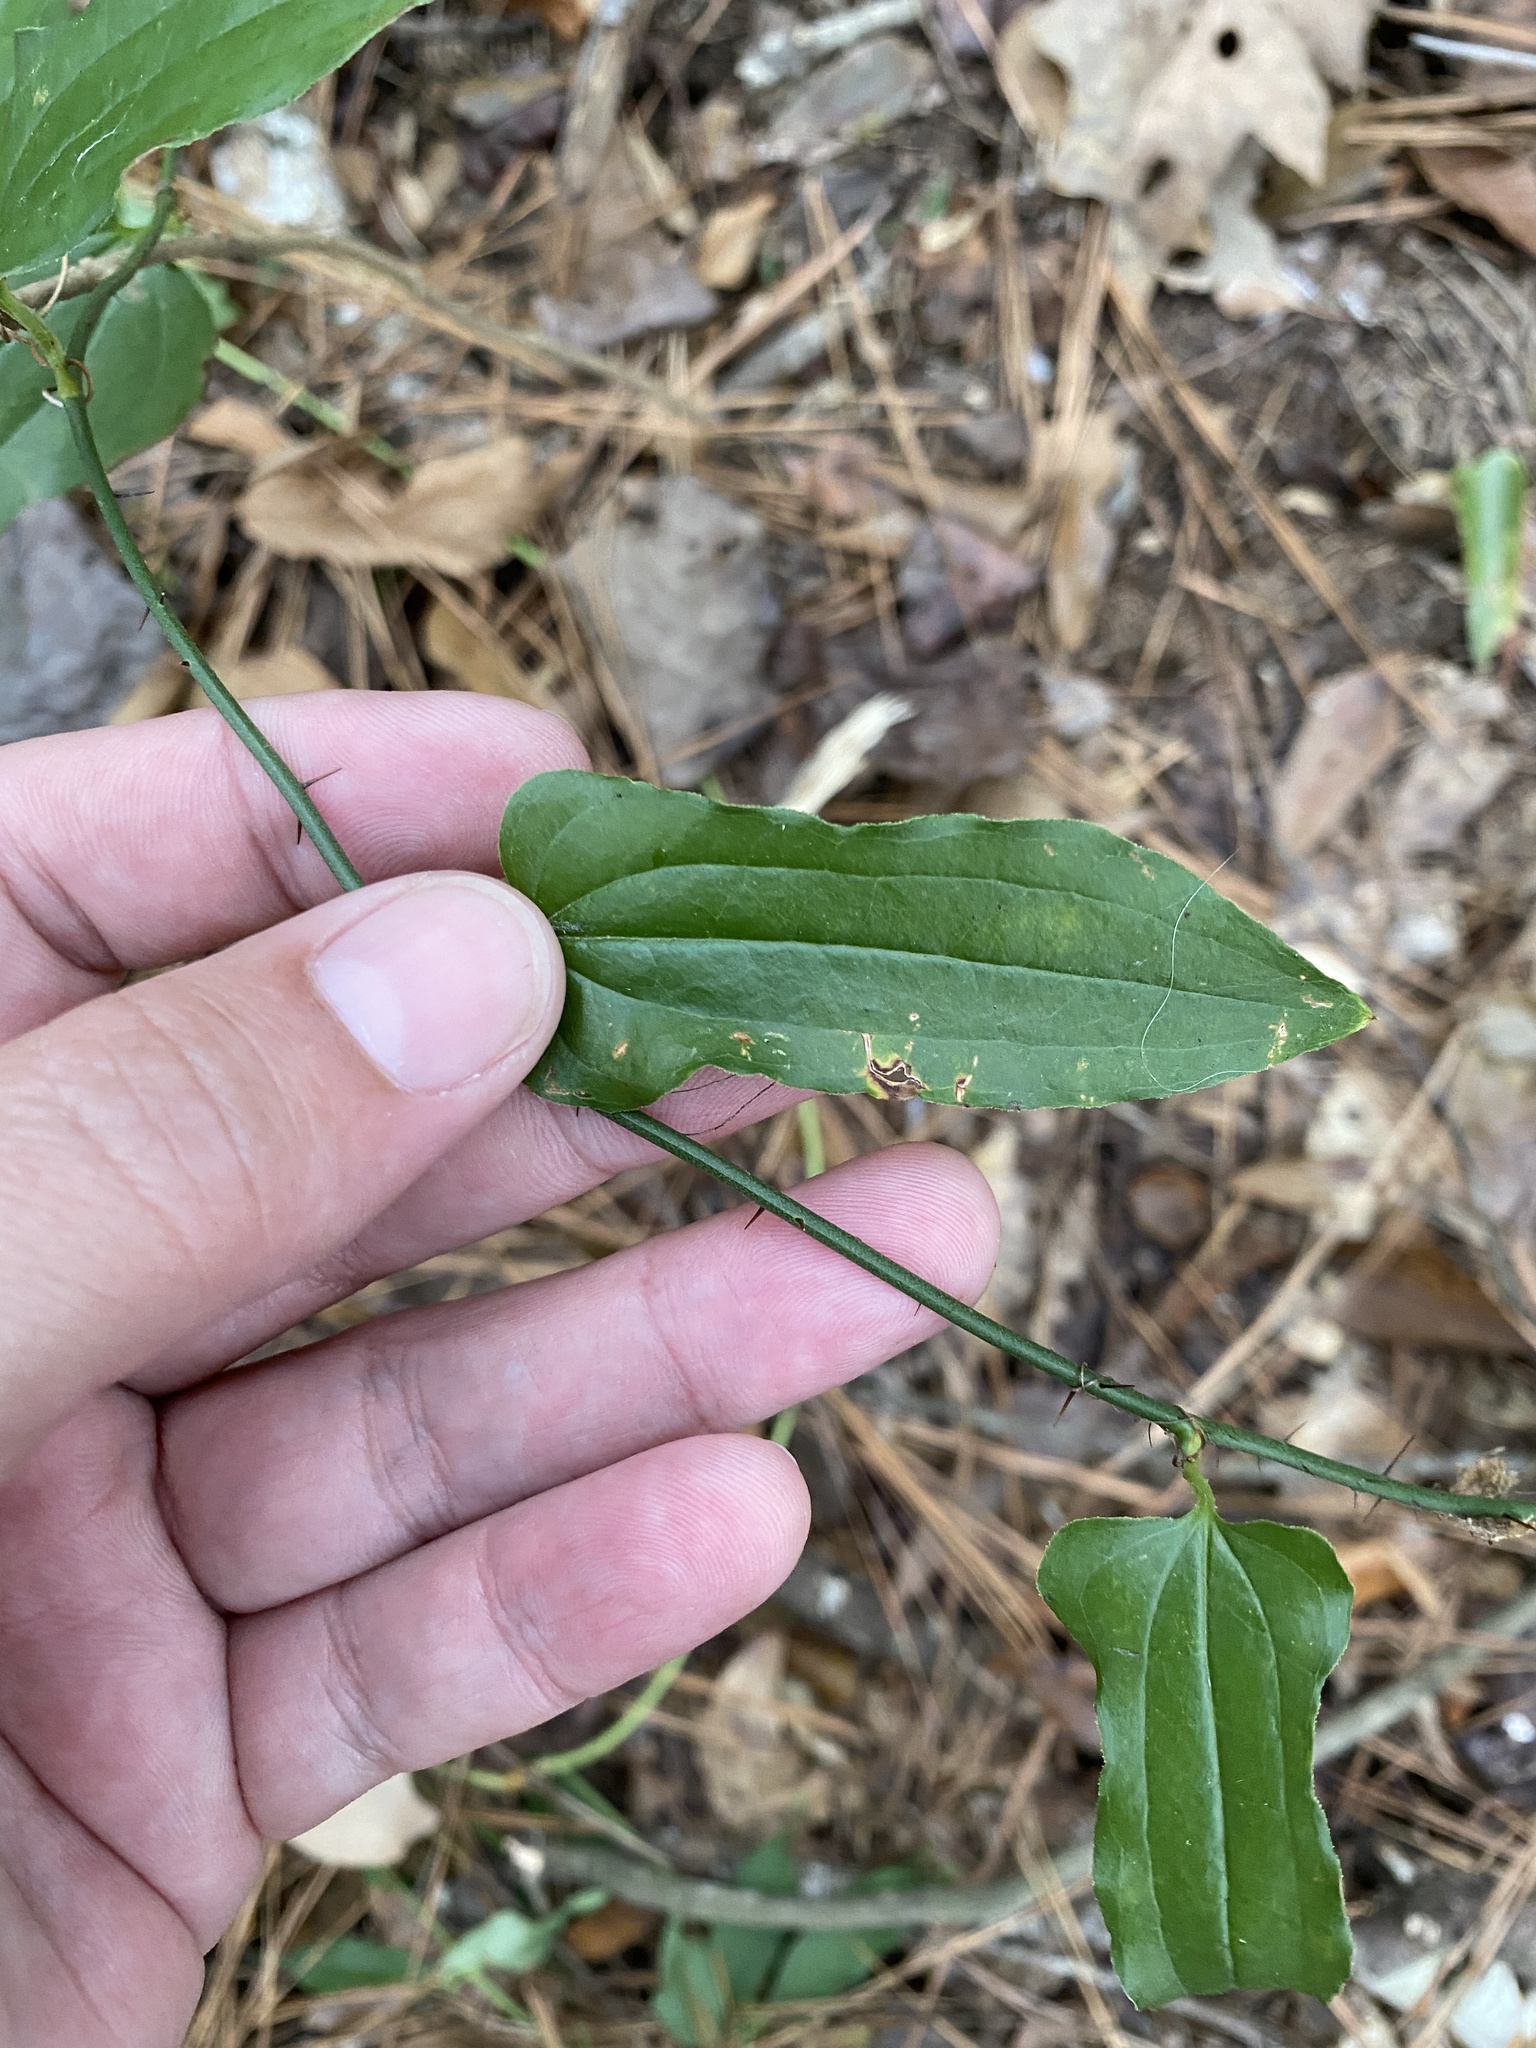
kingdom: Plantae
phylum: Tracheophyta
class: Liliopsida
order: Liliales
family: Smilacaceae
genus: Smilax
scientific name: Smilax tamnoides
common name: Hellfetter
